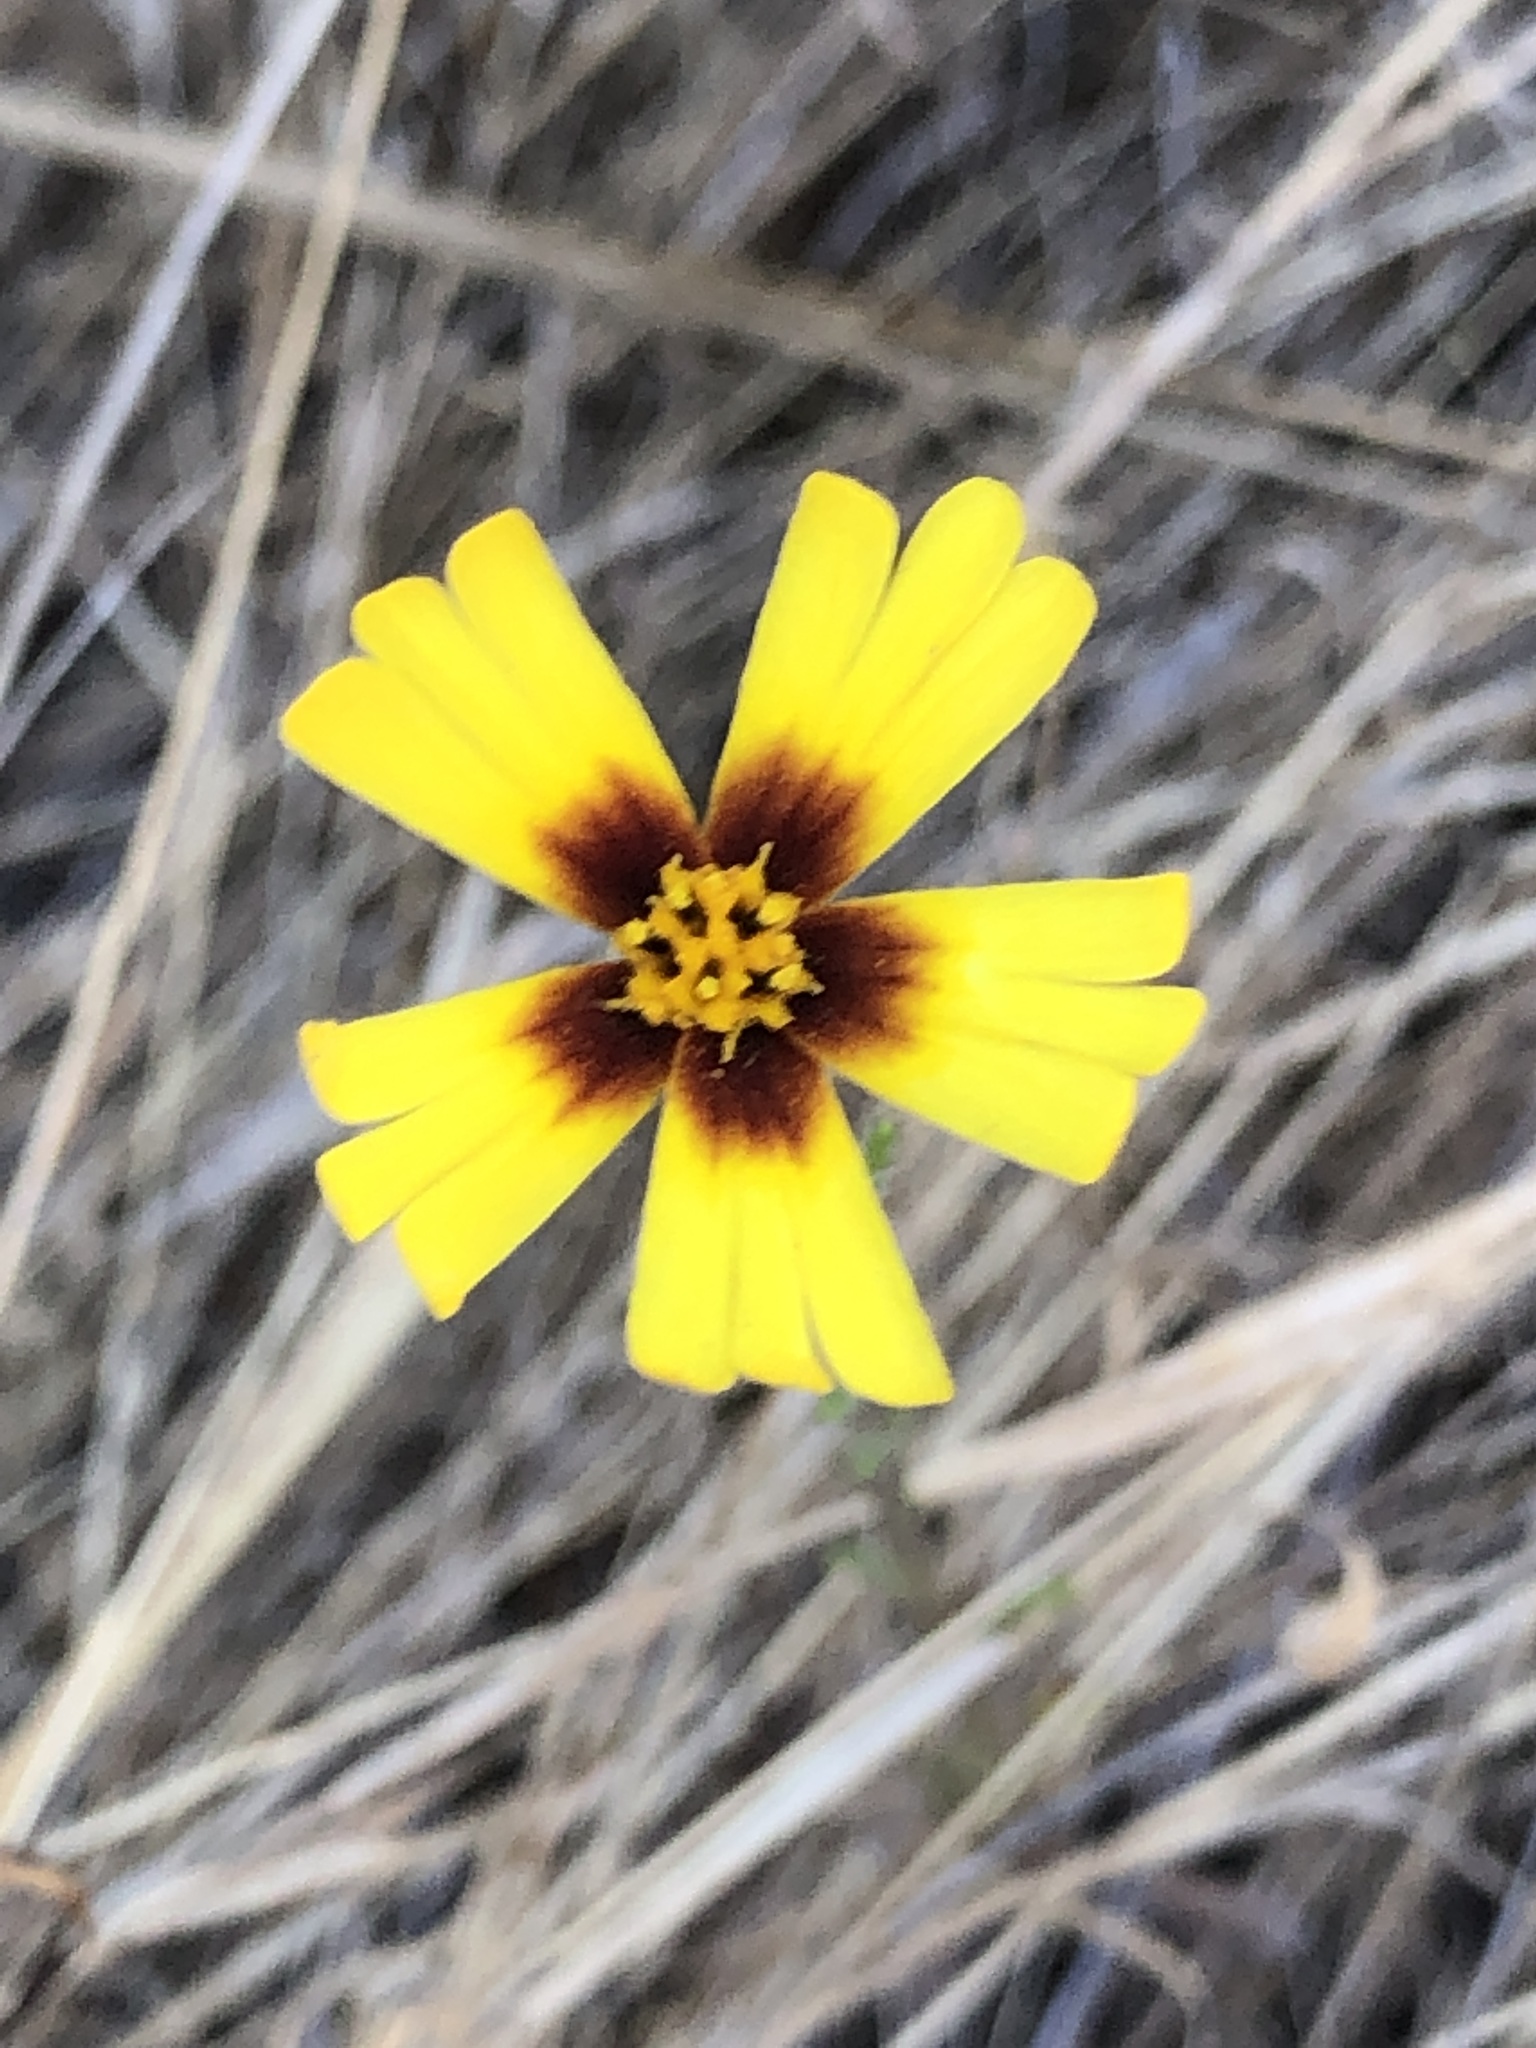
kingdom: Plantae
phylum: Tracheophyta
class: Magnoliopsida
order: Asterales
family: Asteraceae
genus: Madia
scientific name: Madia elegans
